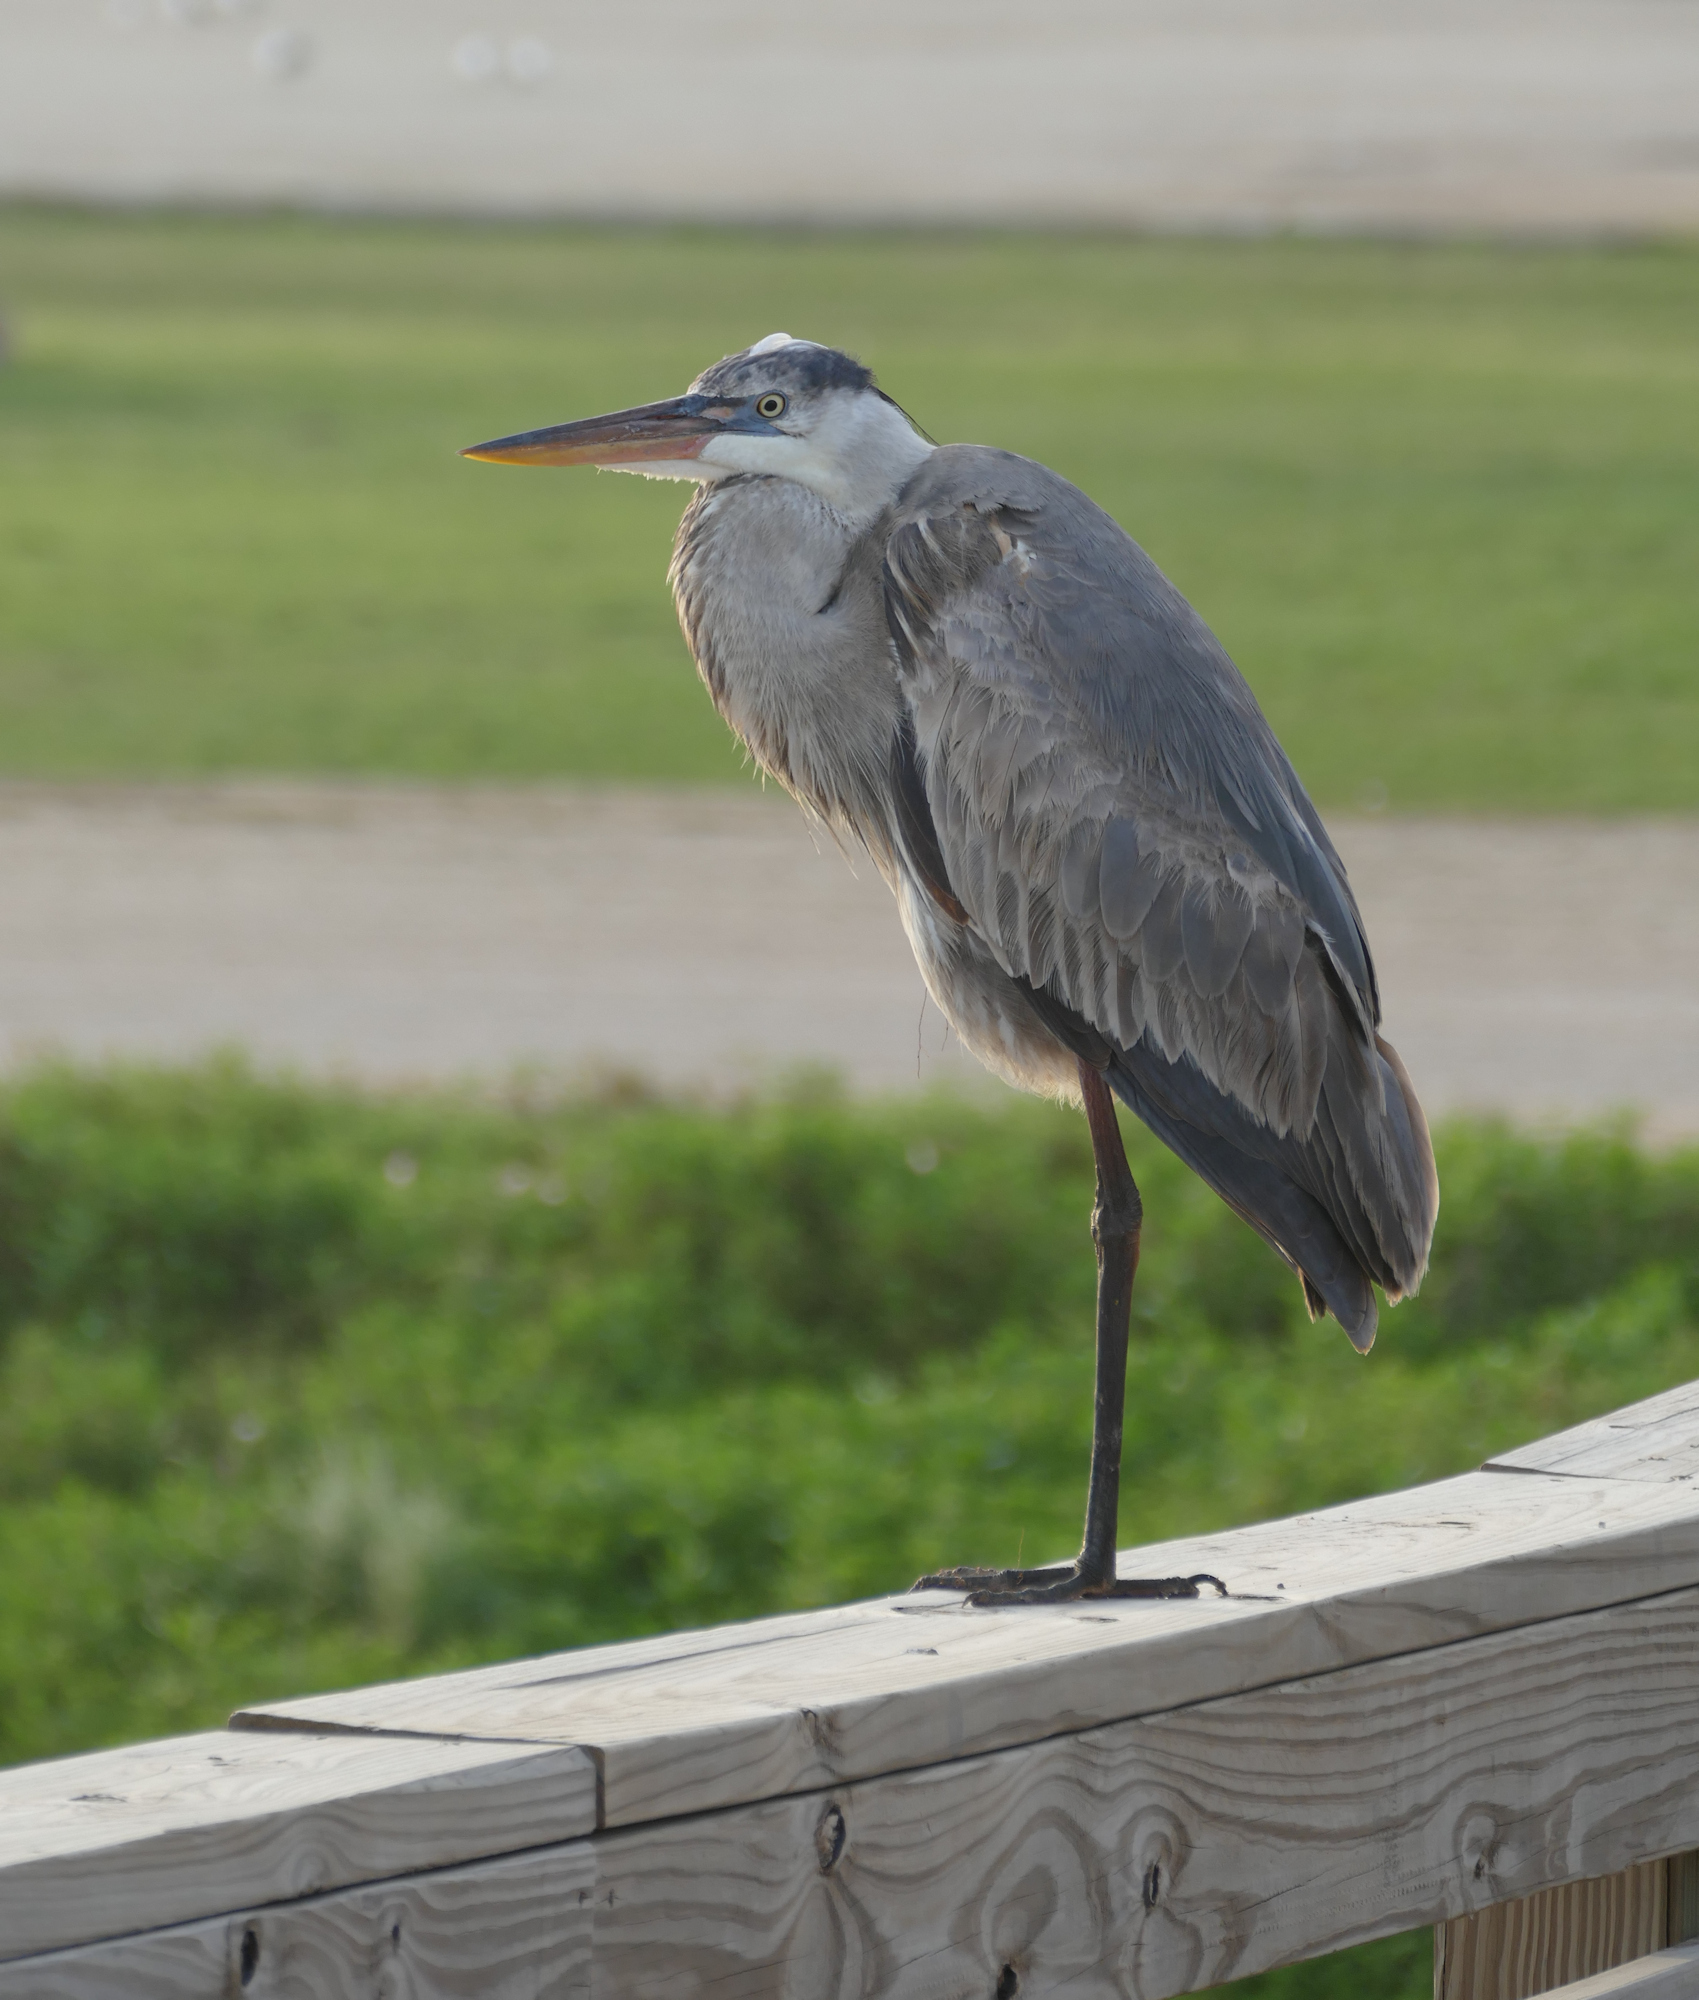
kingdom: Animalia
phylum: Chordata
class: Aves
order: Pelecaniformes
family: Ardeidae
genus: Ardea
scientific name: Ardea herodias
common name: Great blue heron
